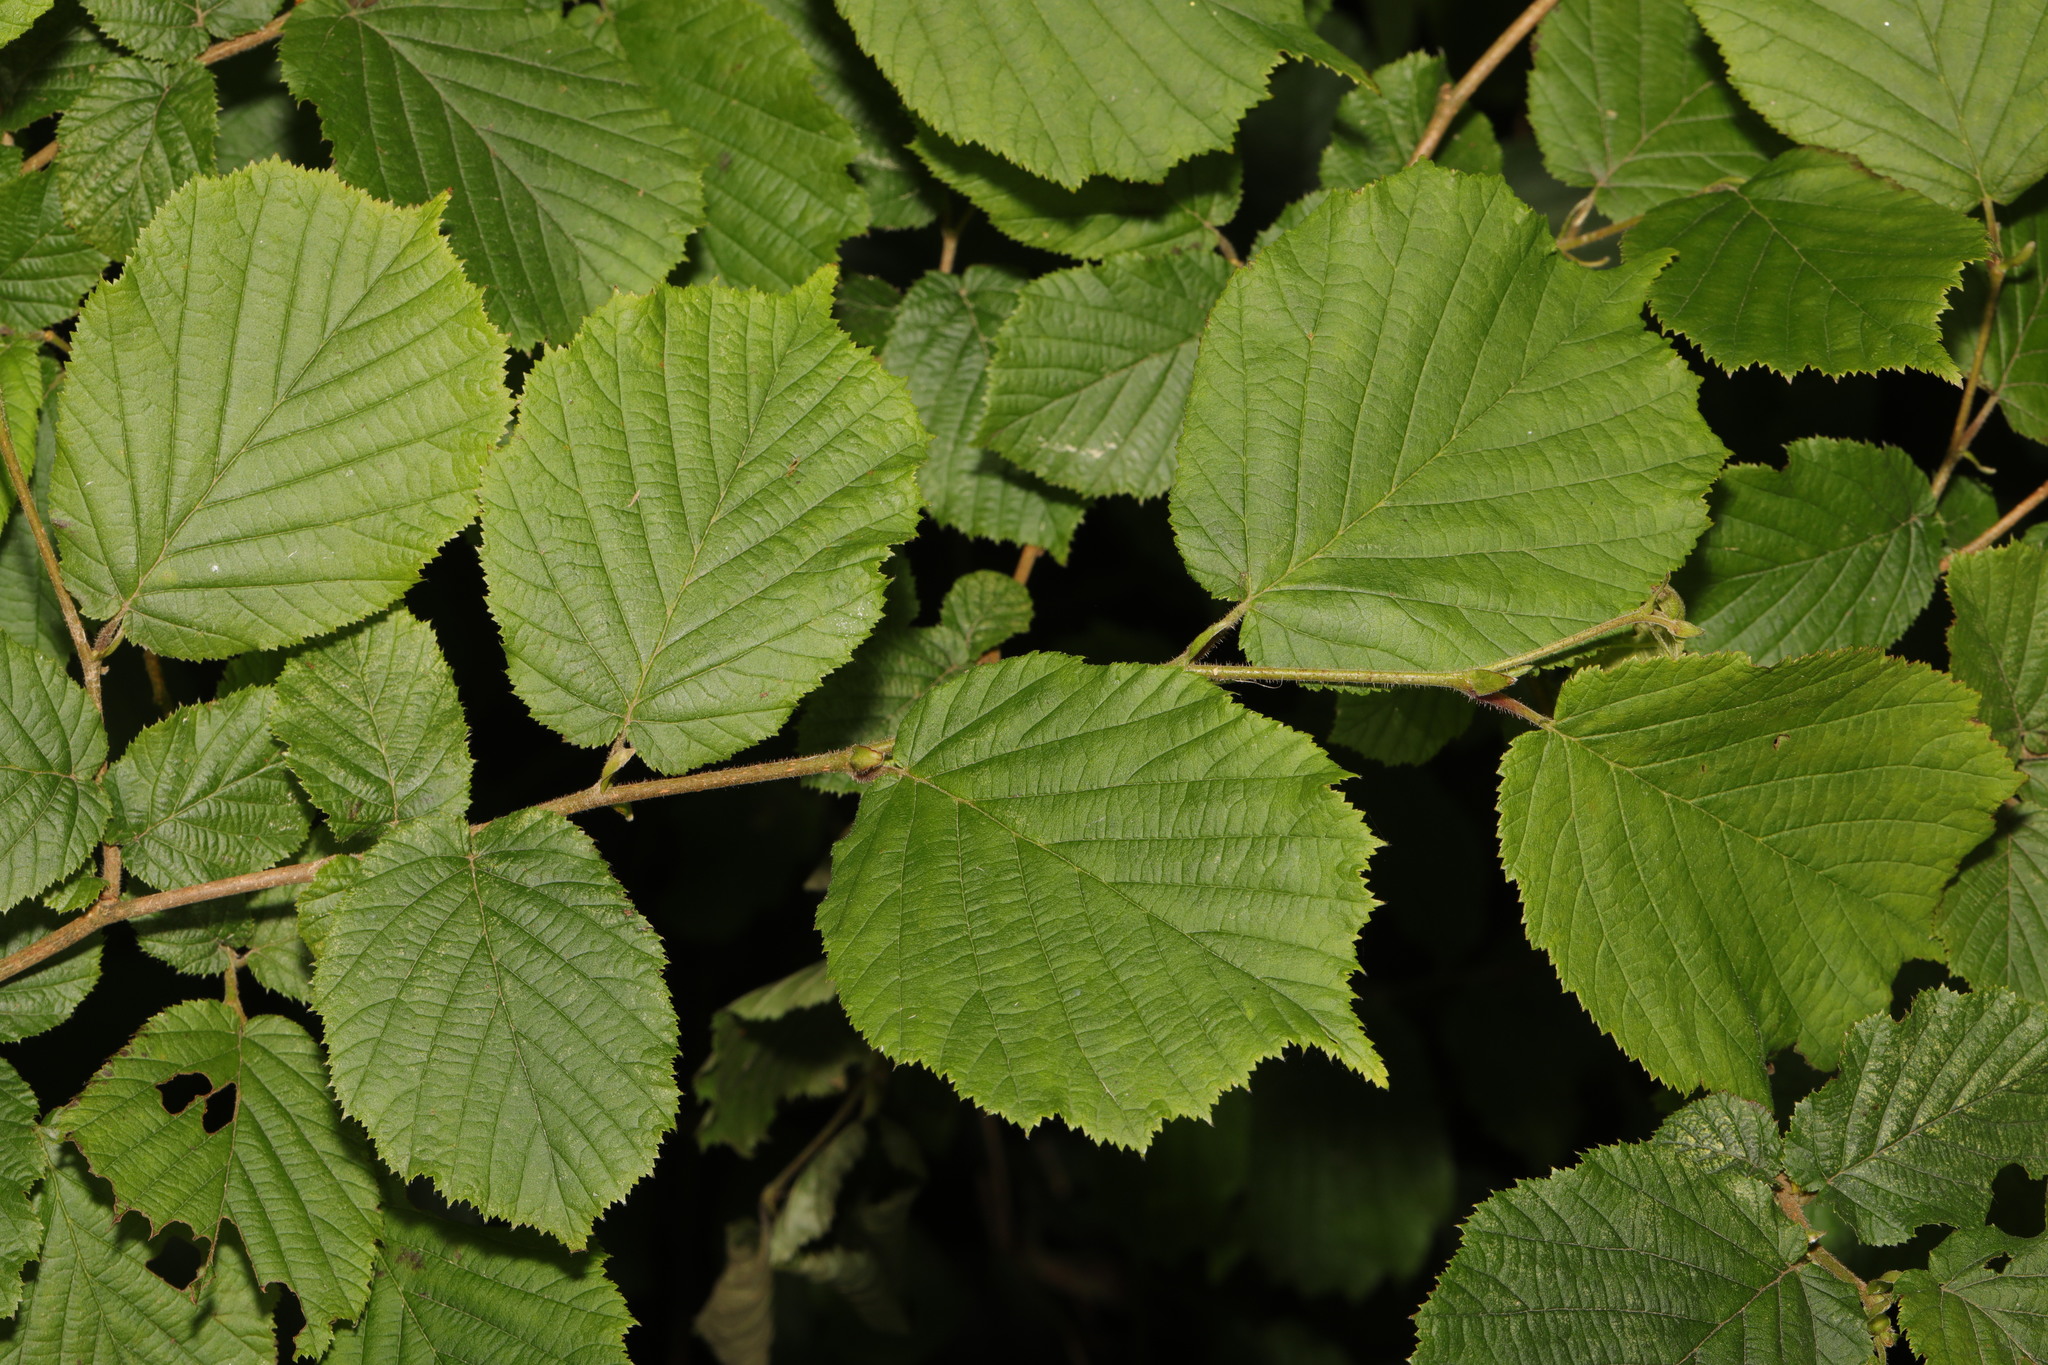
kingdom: Plantae
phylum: Tracheophyta
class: Magnoliopsida
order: Fagales
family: Betulaceae
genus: Corylus
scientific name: Corylus avellana
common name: European hazel
